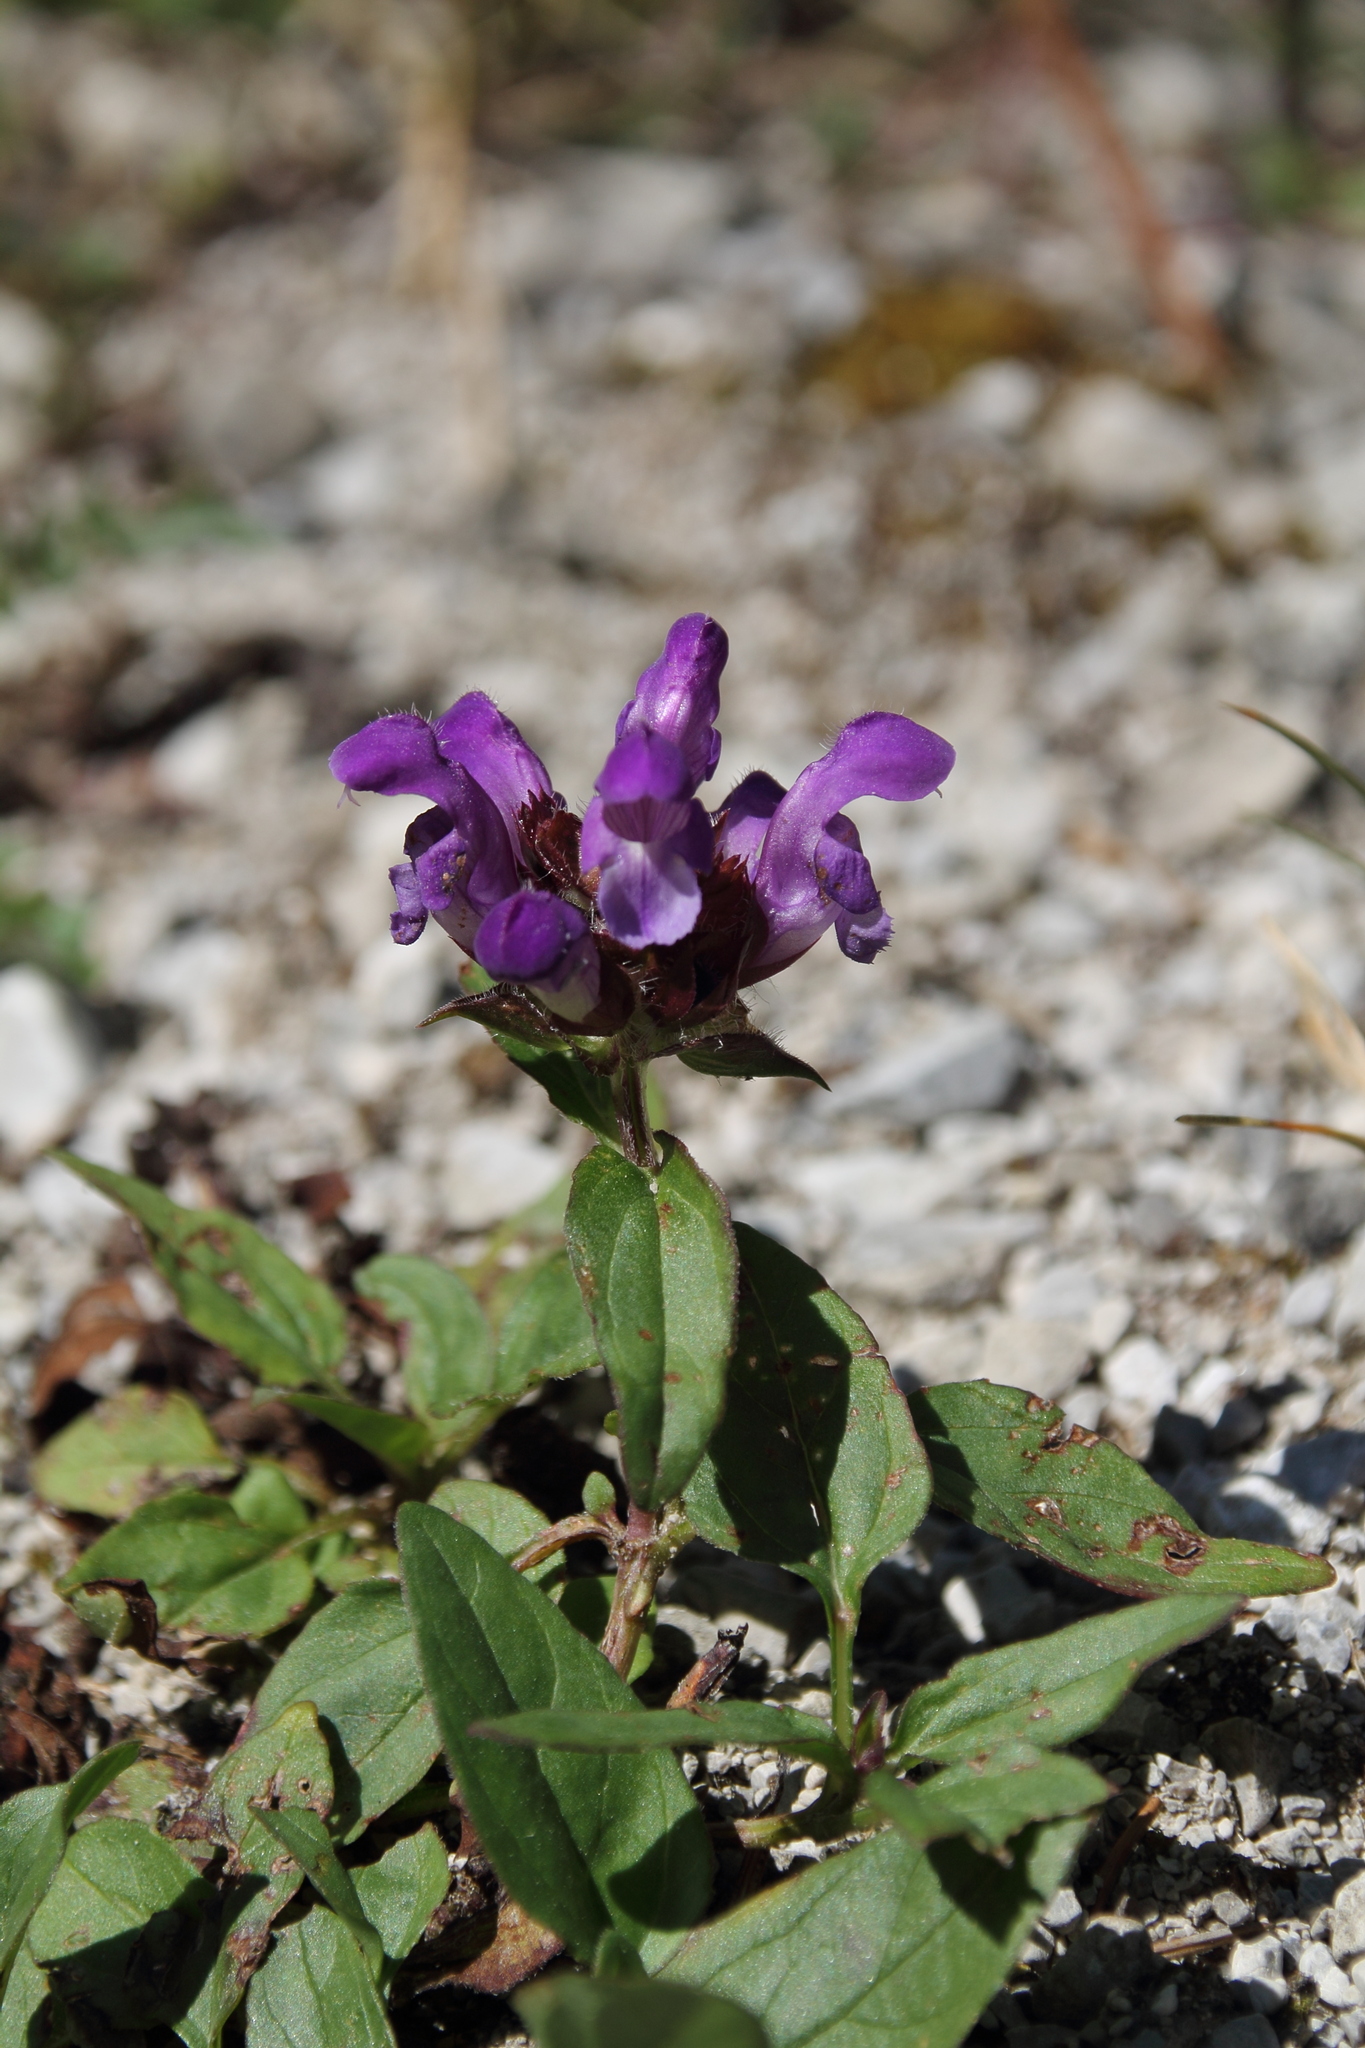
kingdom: Plantae
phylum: Tracheophyta
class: Magnoliopsida
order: Lamiales
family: Lamiaceae
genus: Prunella
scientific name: Prunella grandiflora
